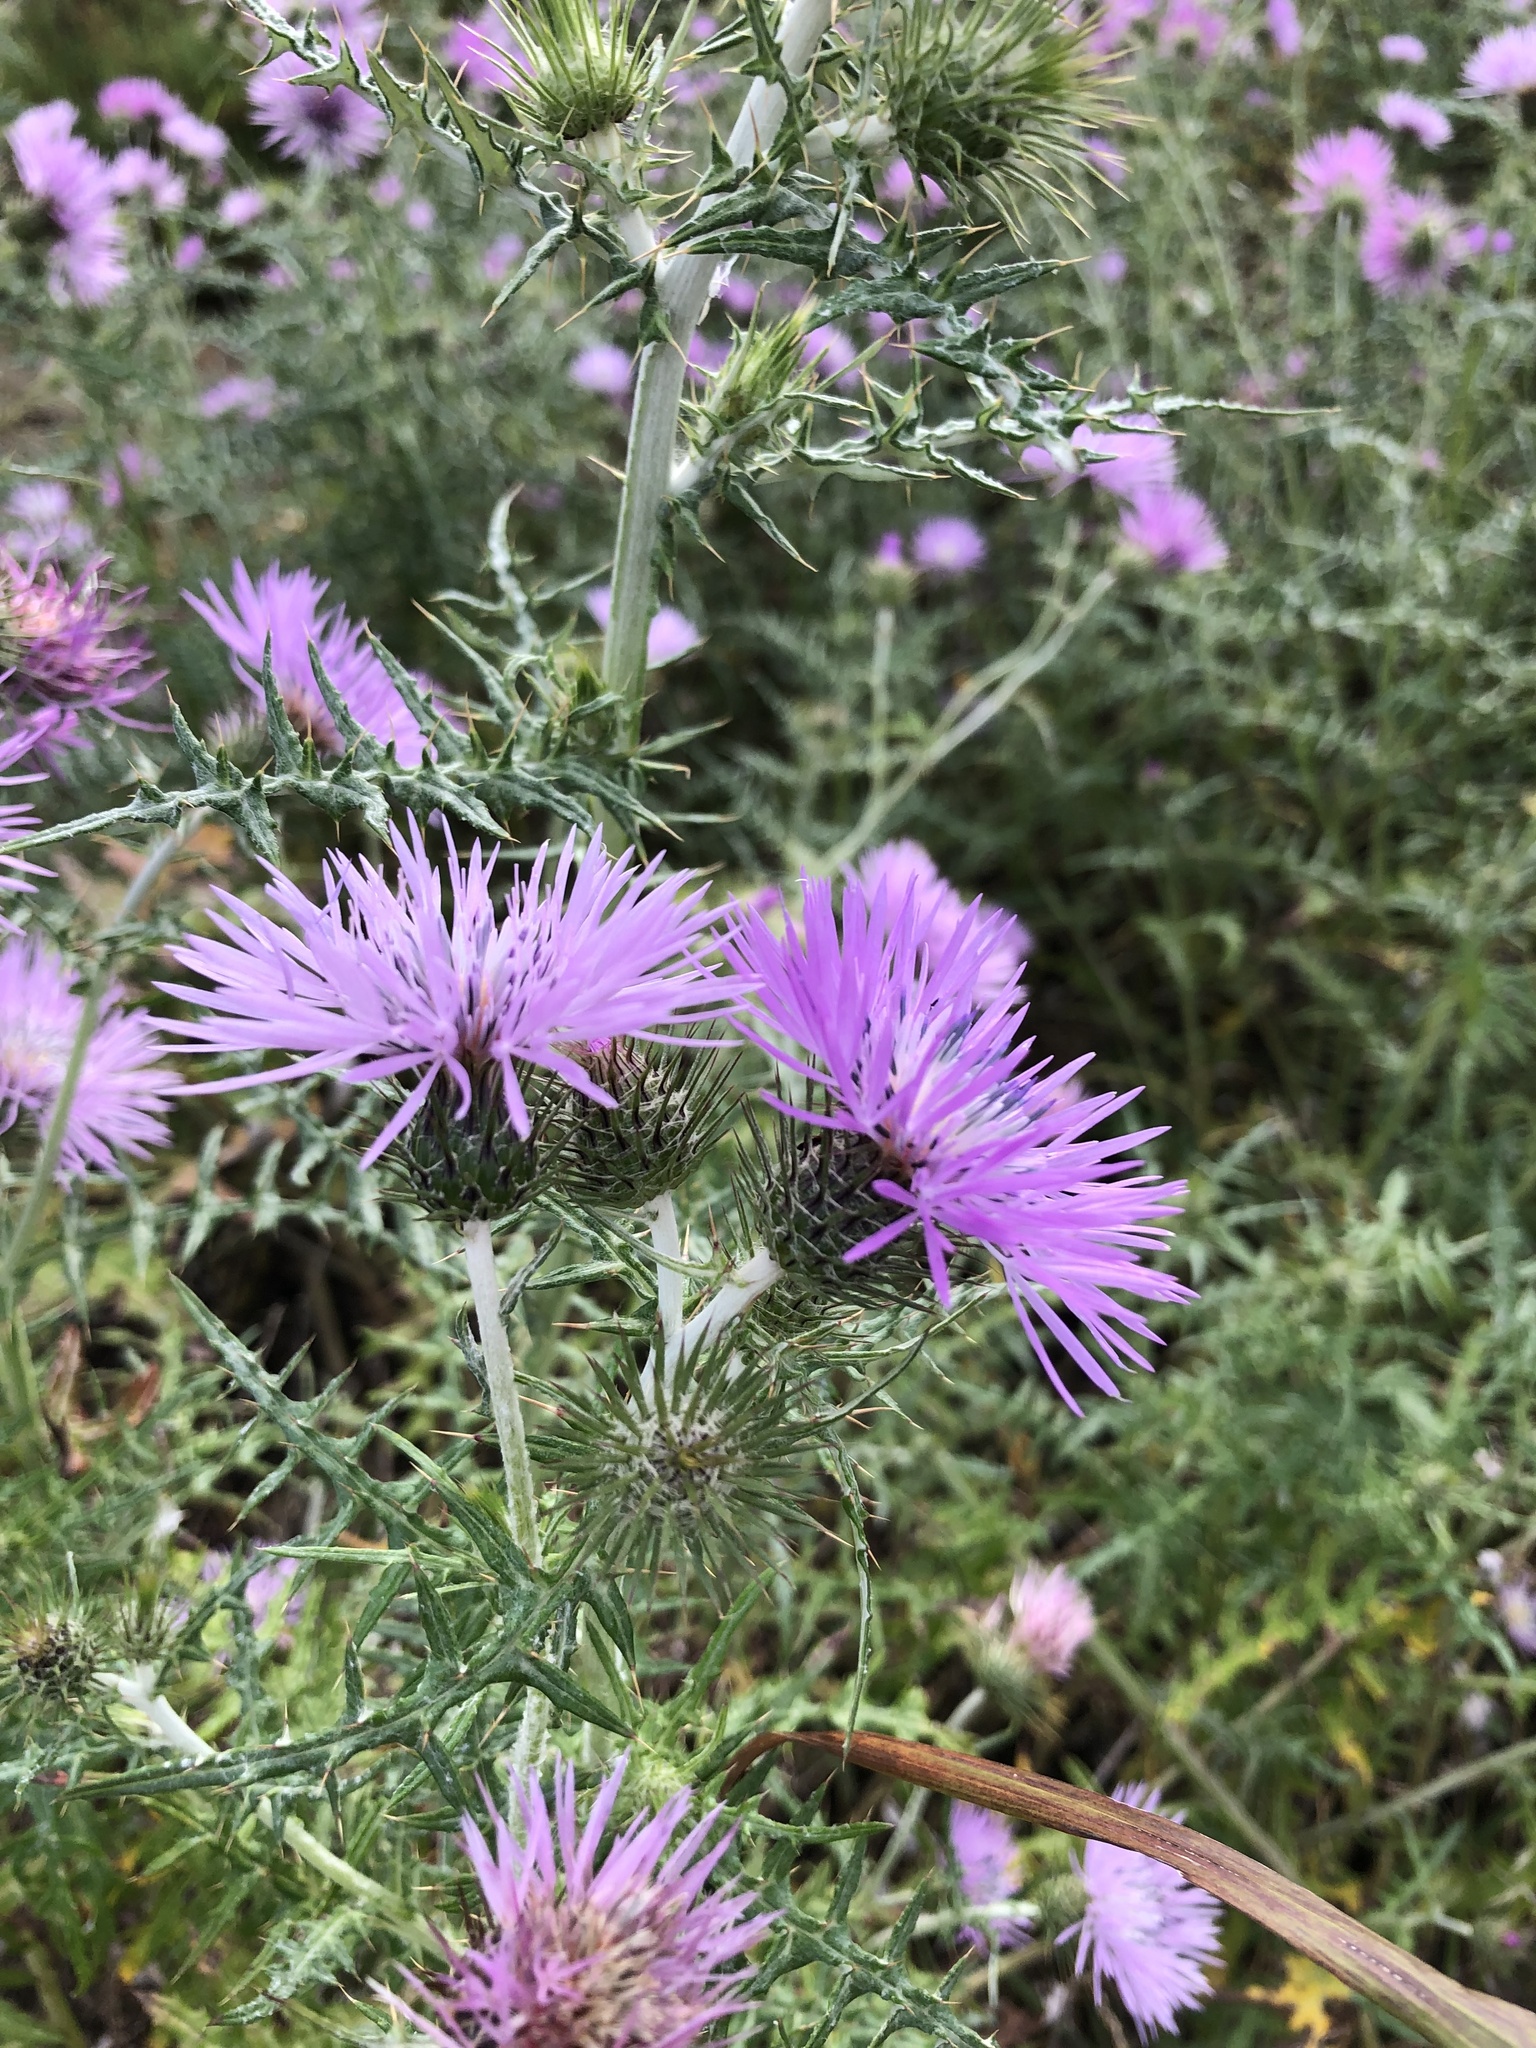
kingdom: Plantae
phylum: Tracheophyta
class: Magnoliopsida
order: Asterales
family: Asteraceae
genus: Galactites
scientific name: Galactites tomentosa
